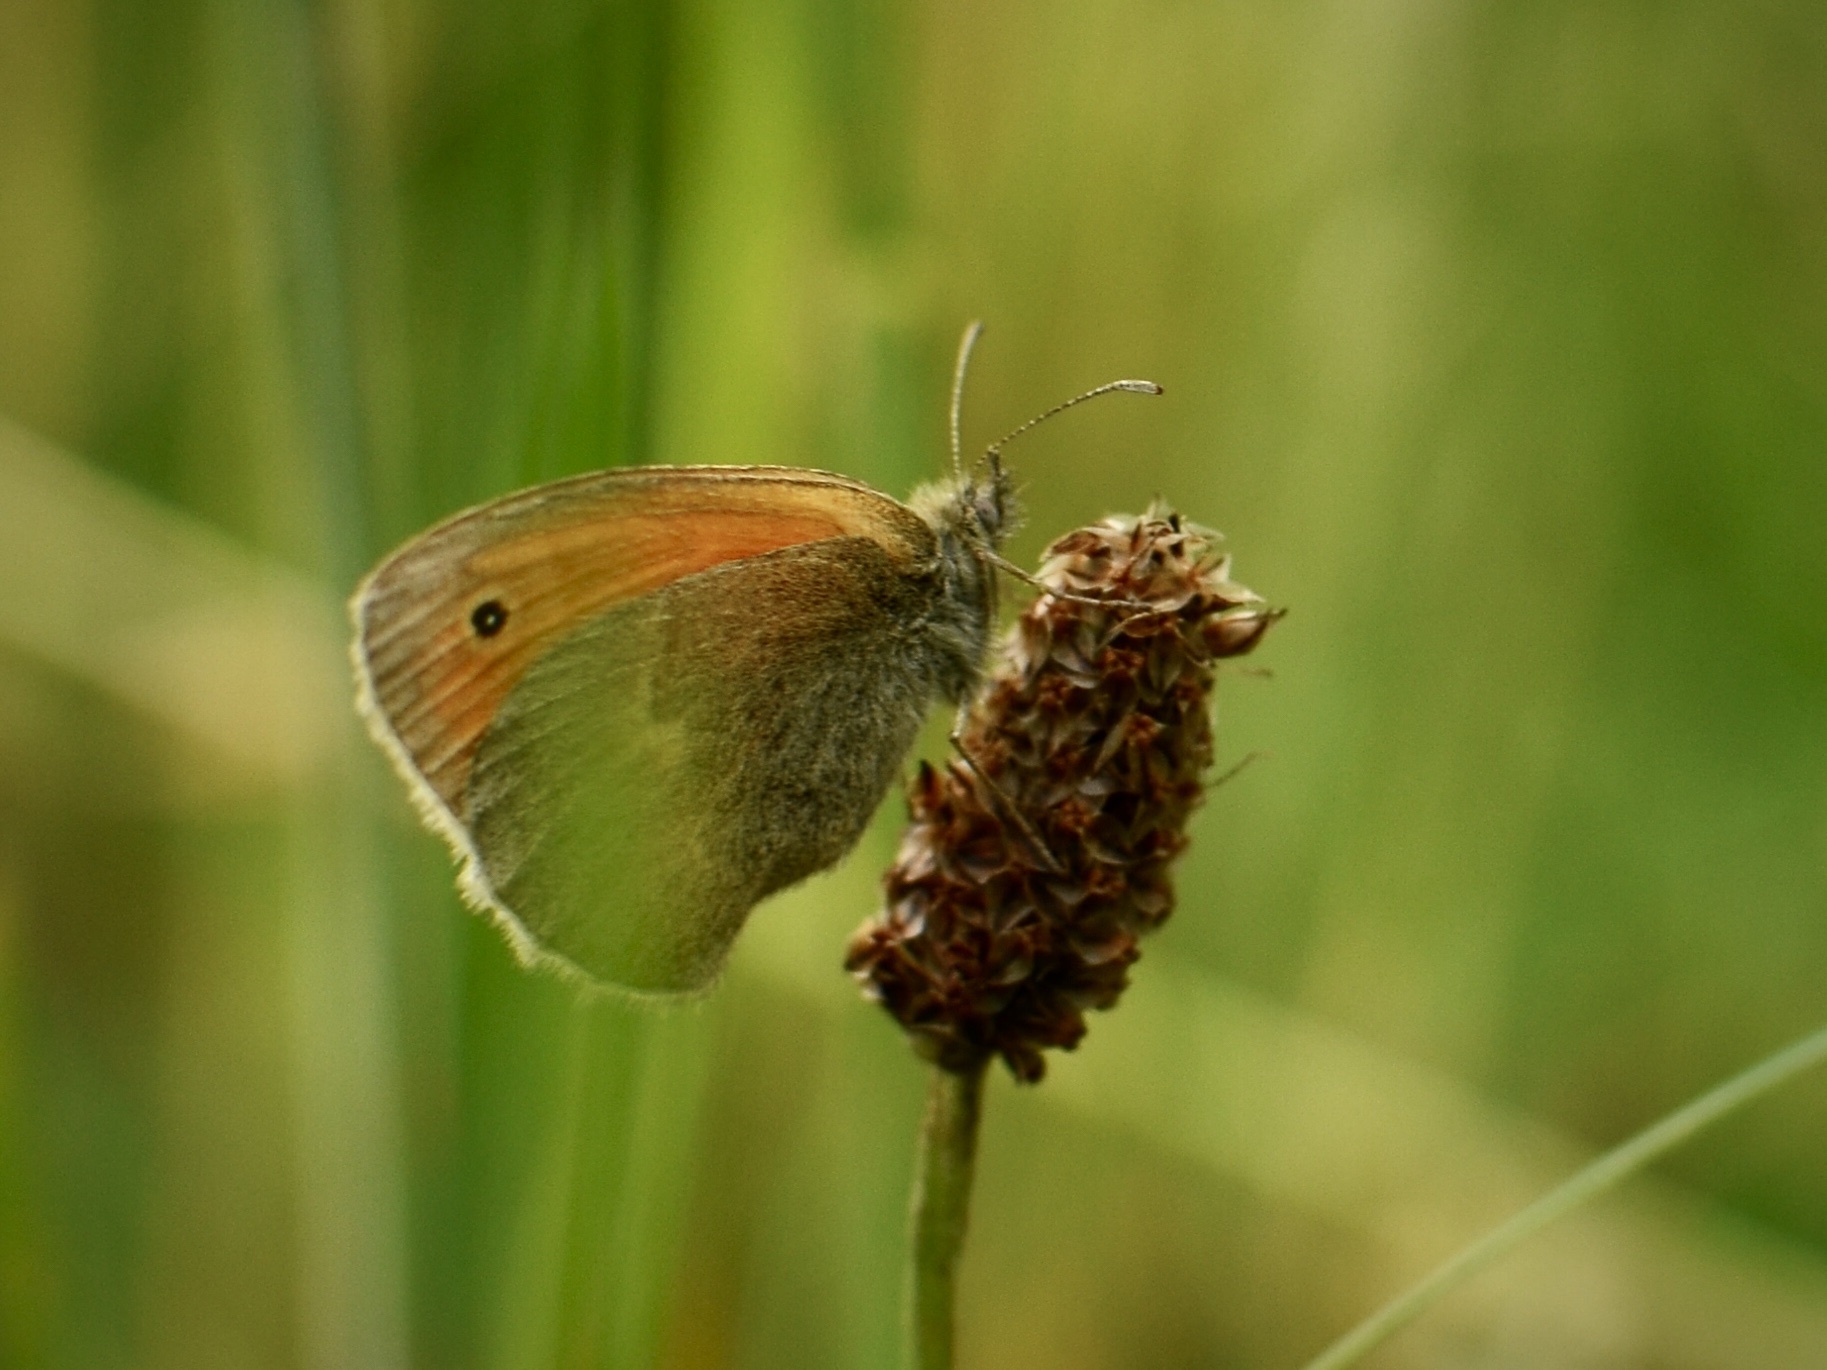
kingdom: Animalia
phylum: Arthropoda
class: Insecta
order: Lepidoptera
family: Nymphalidae
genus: Coenonympha
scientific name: Coenonympha pamphilus
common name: Small heath
